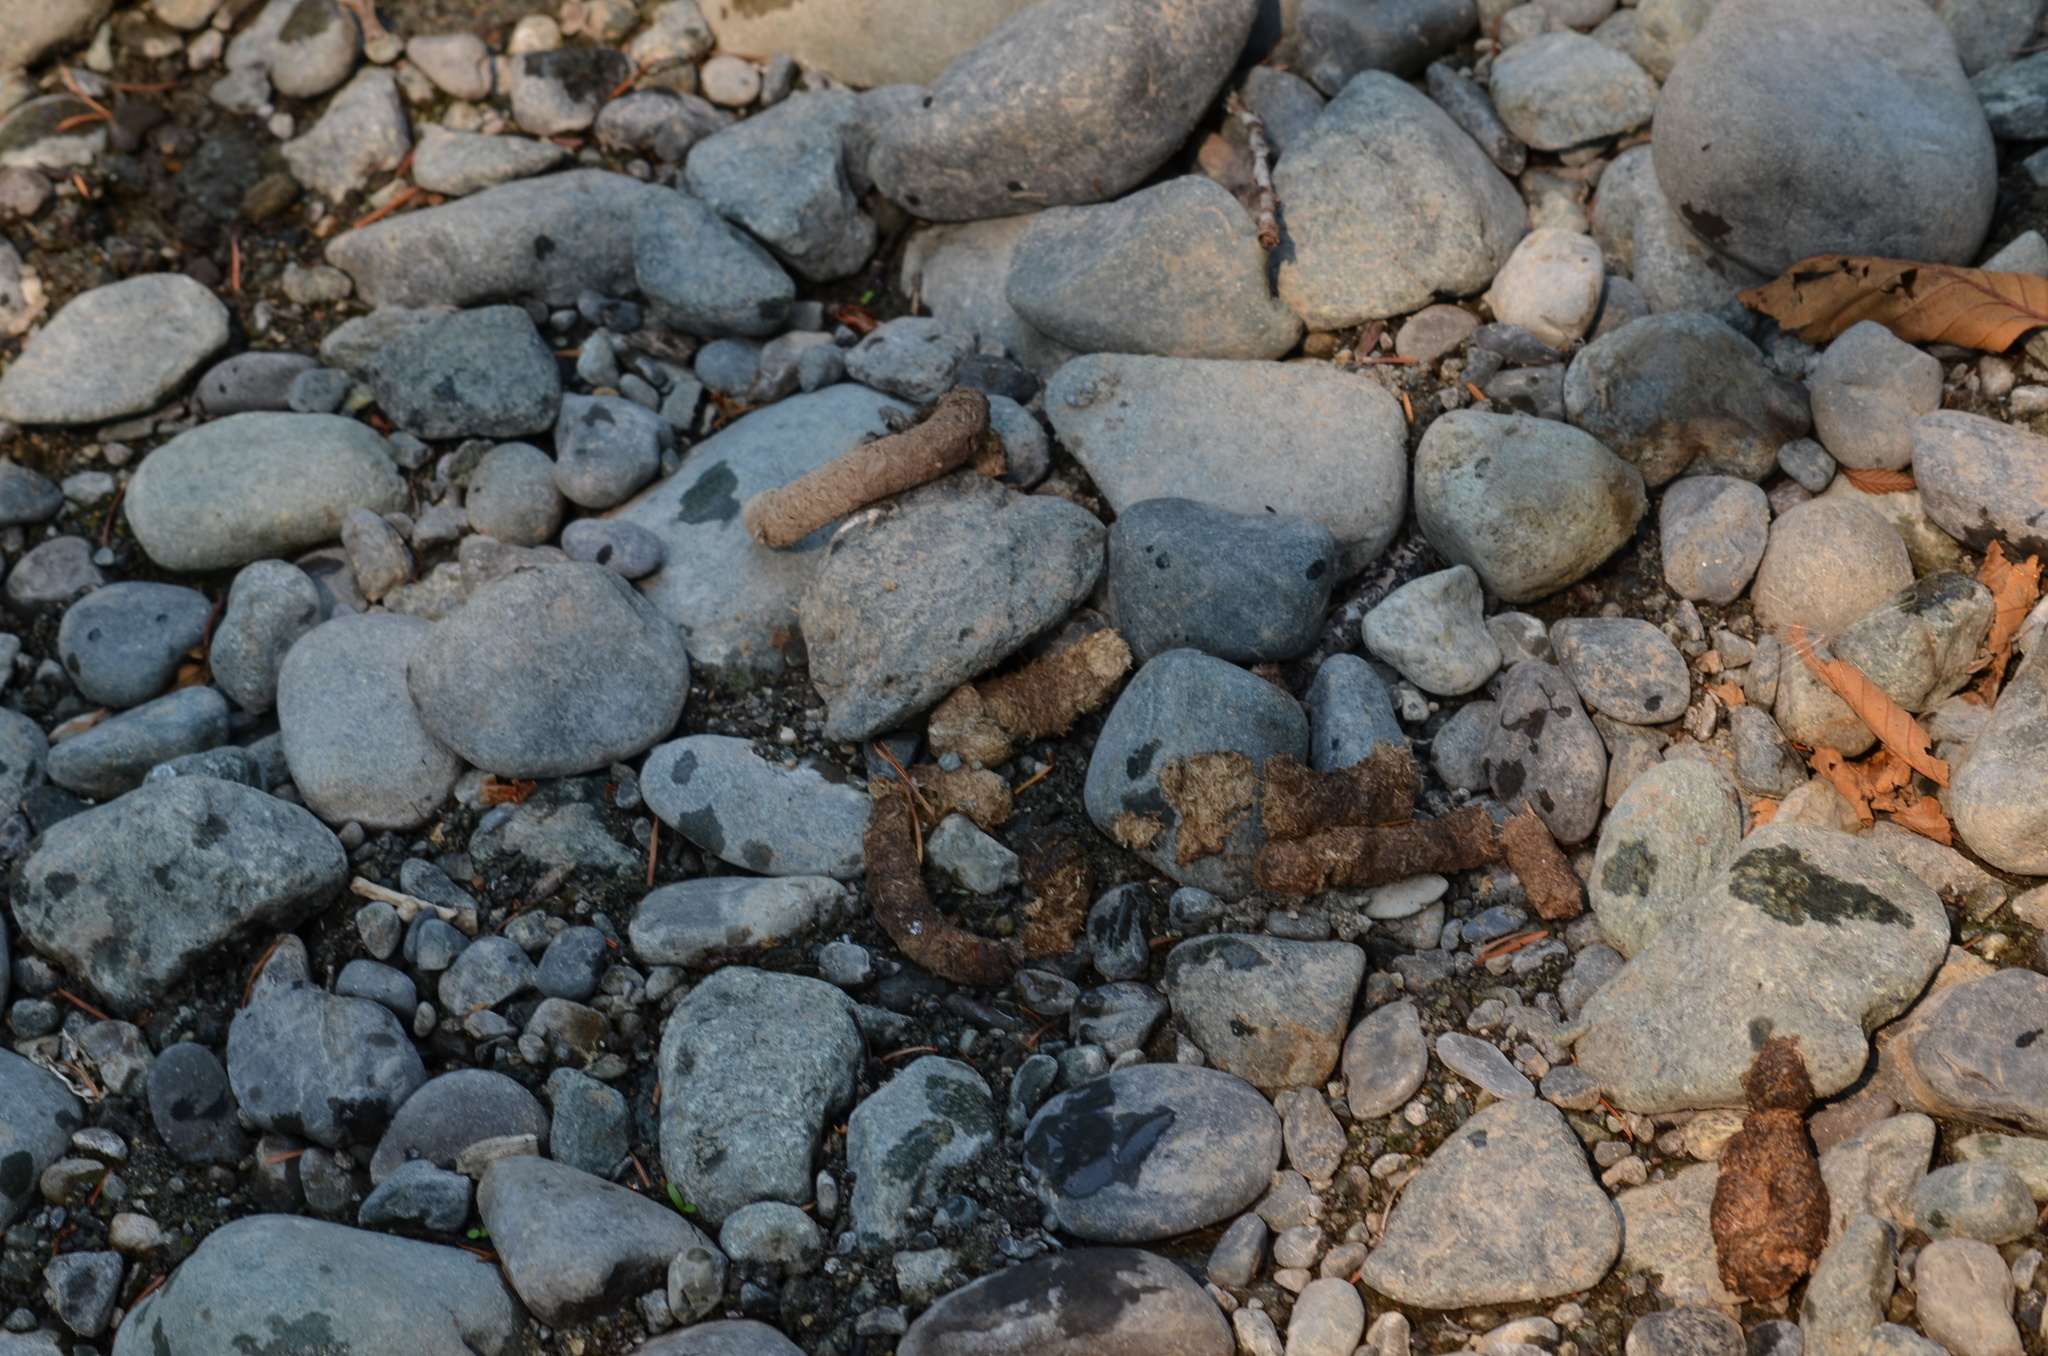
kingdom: Animalia
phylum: Chordata
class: Aves
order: Anseriformes
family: Anatidae
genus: Branta
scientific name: Branta canadensis
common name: Canada goose
